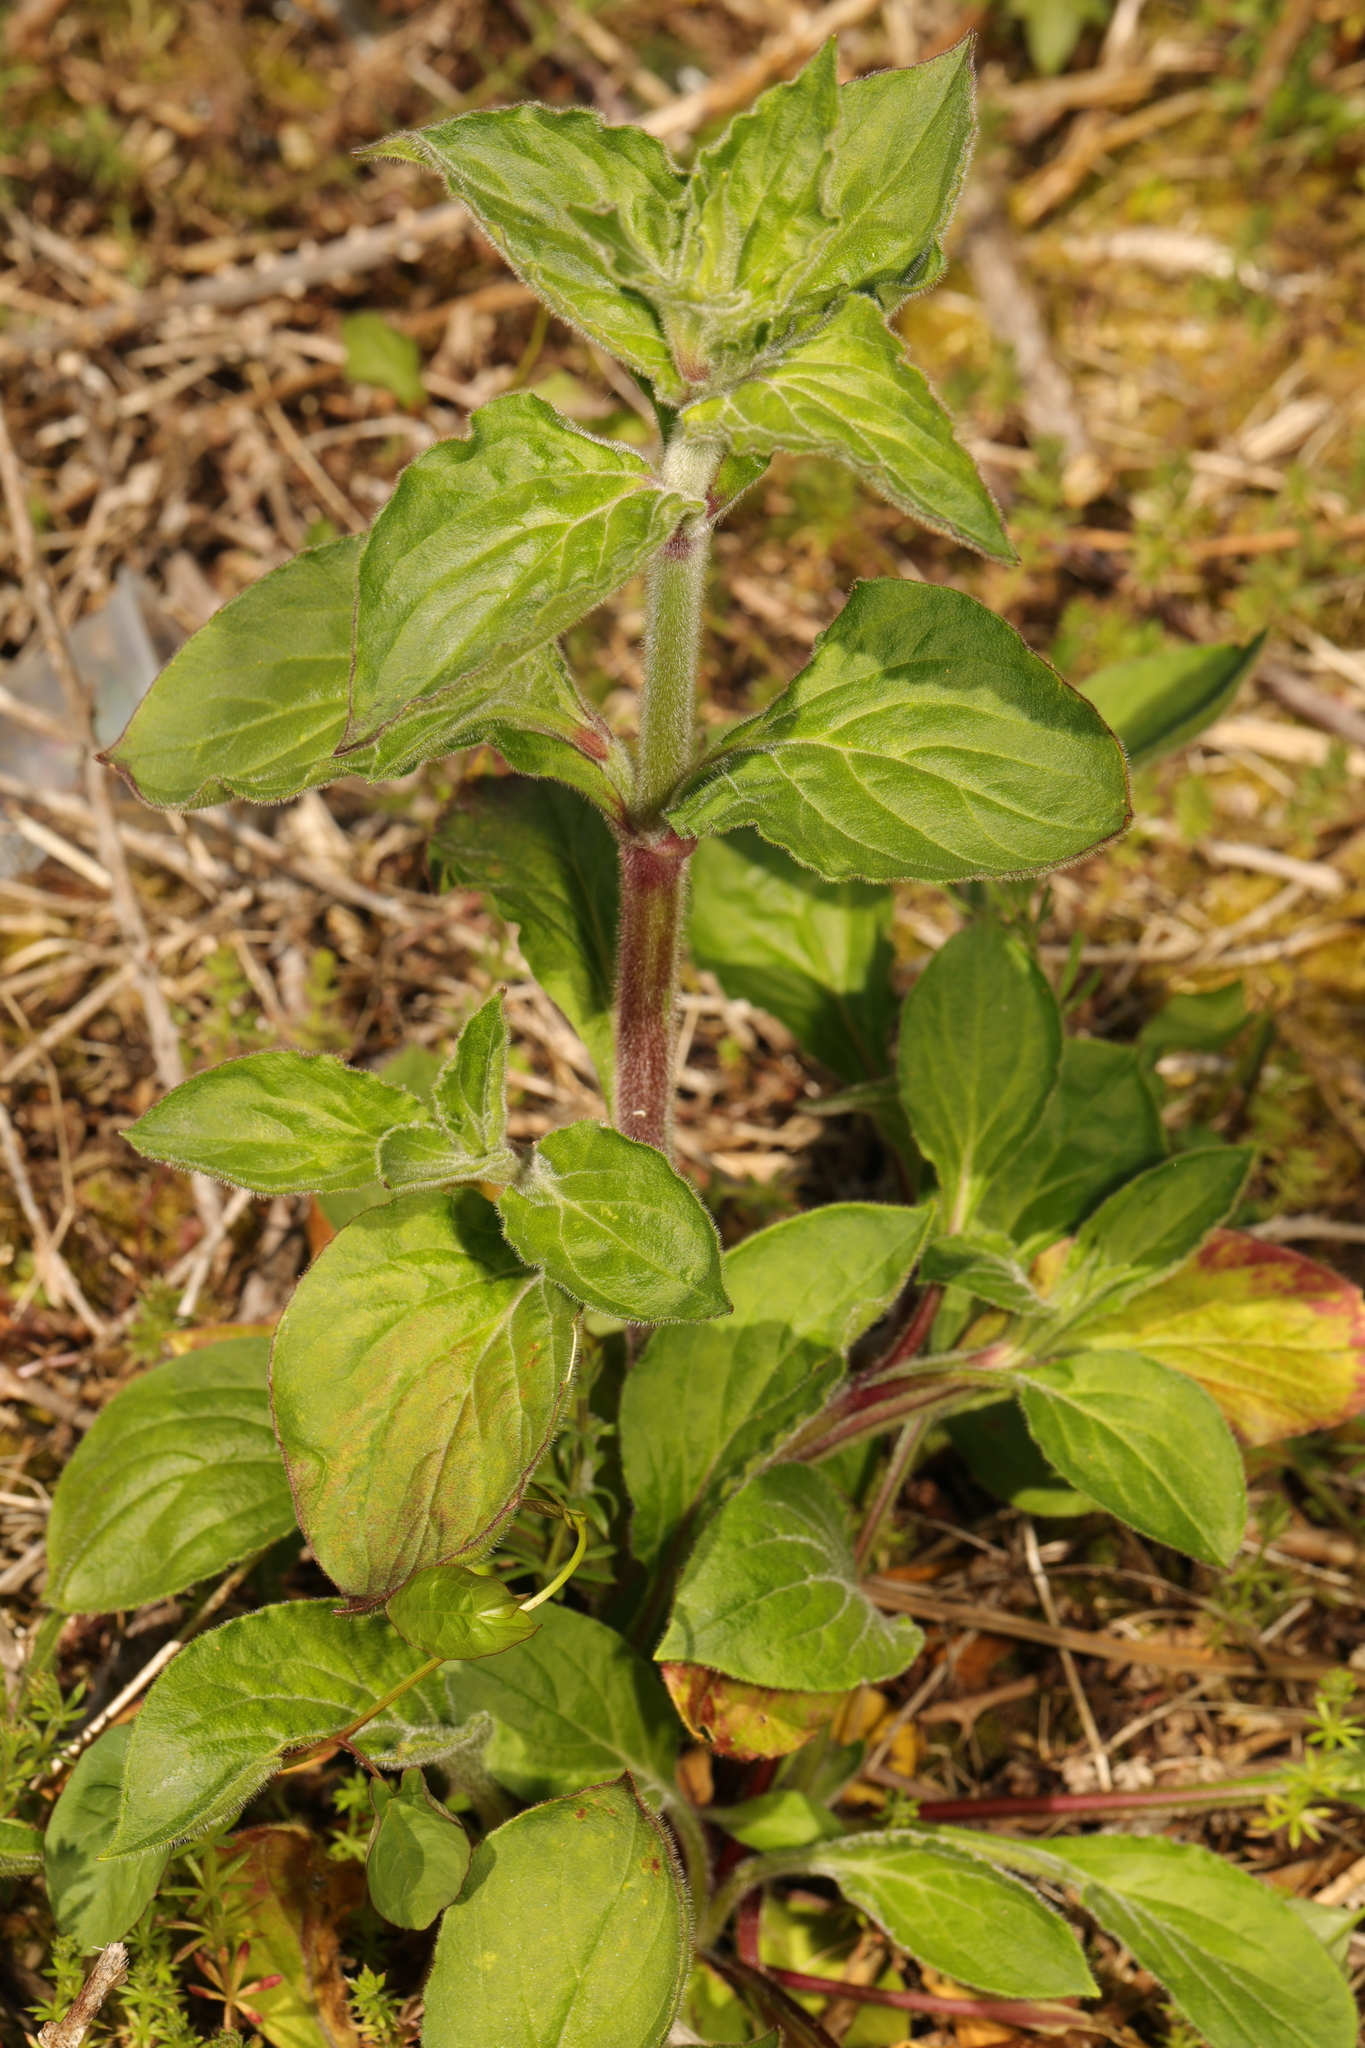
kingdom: Plantae
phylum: Tracheophyta
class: Magnoliopsida
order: Caryophyllales
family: Caryophyllaceae
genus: Silene
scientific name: Silene dioica
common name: Red campion
